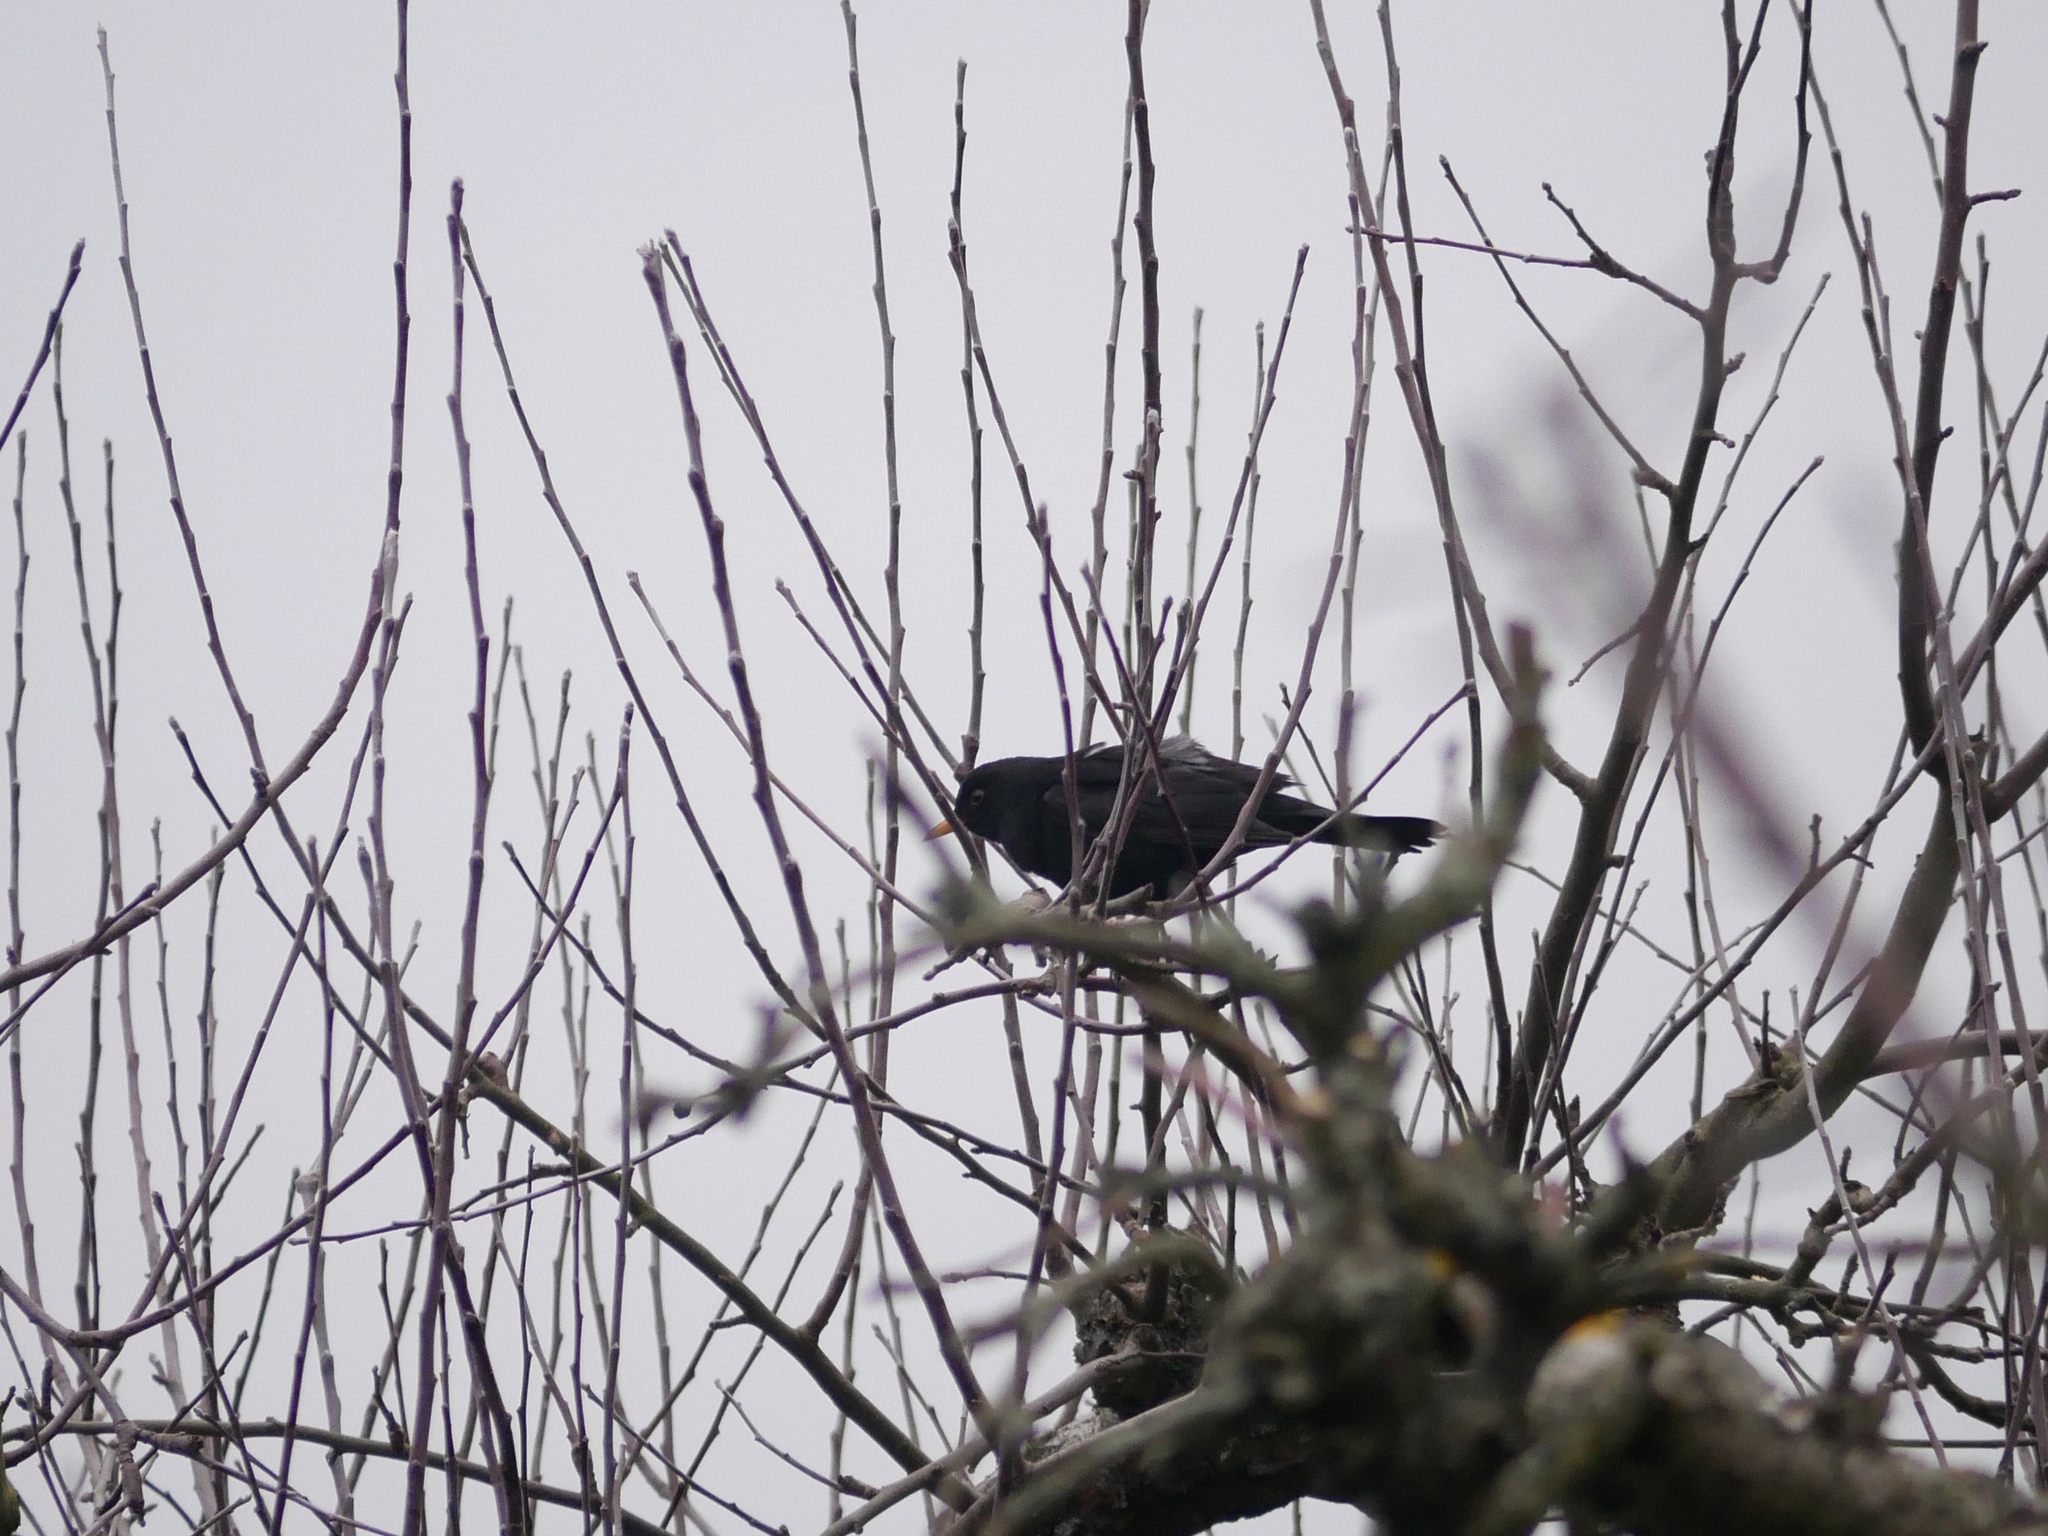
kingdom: Animalia
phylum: Chordata
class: Aves
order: Passeriformes
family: Turdidae
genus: Turdus
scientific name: Turdus merula
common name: Common blackbird
